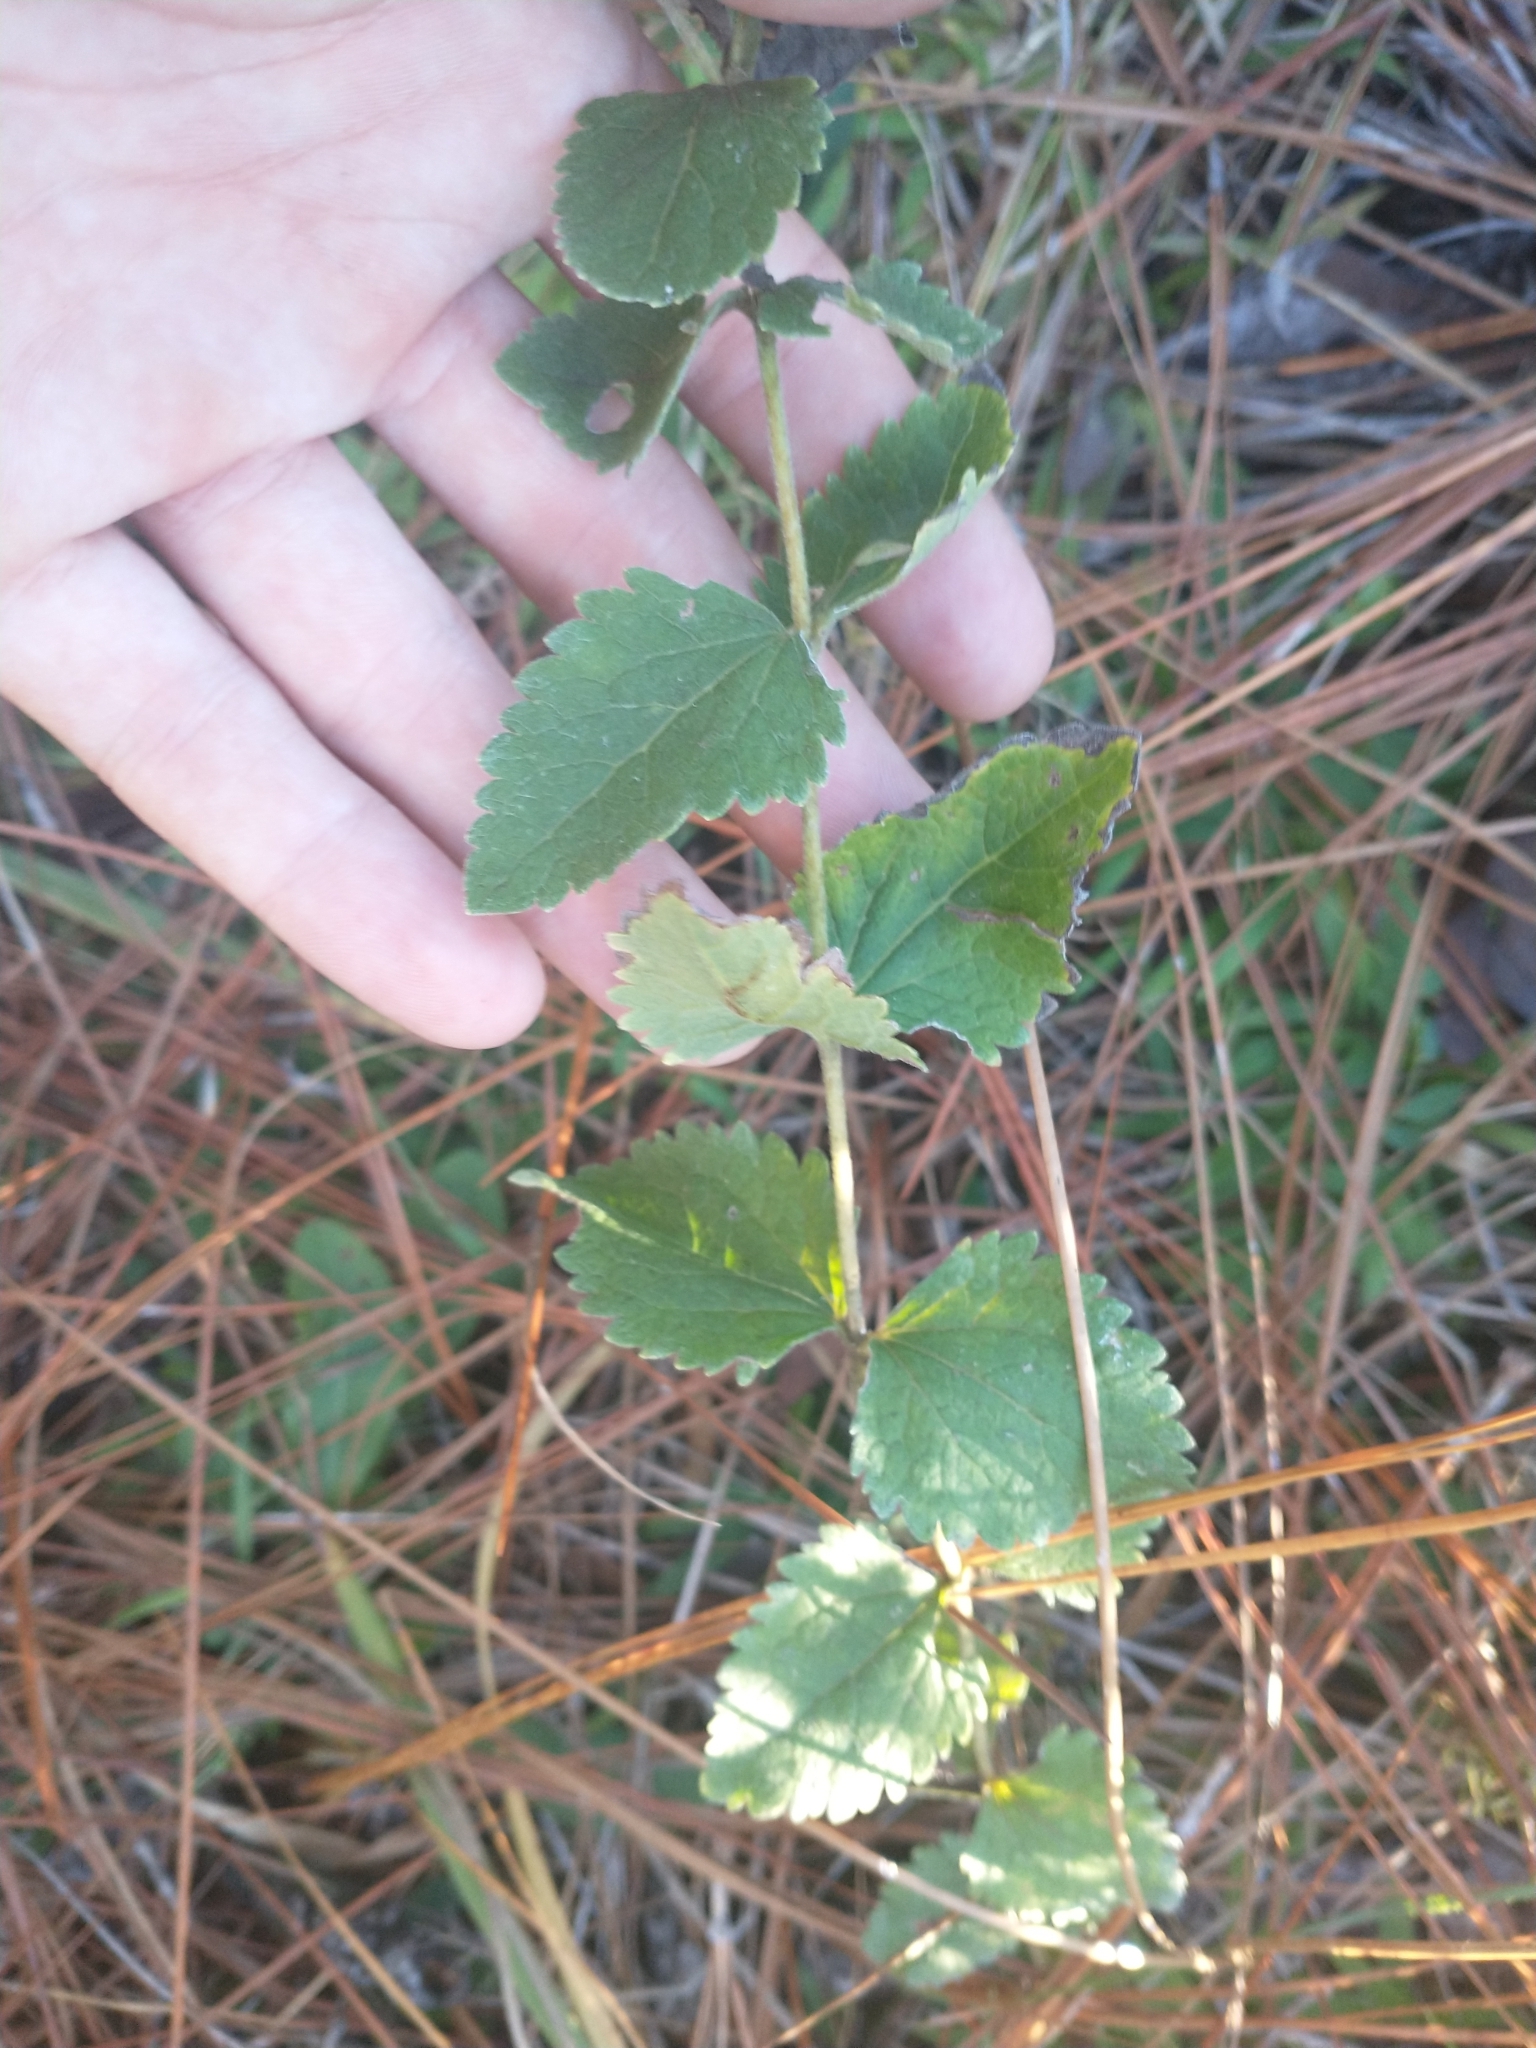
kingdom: Plantae
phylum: Tracheophyta
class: Magnoliopsida
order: Asterales
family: Asteraceae
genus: Eupatorium
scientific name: Eupatorium rotundifolium
